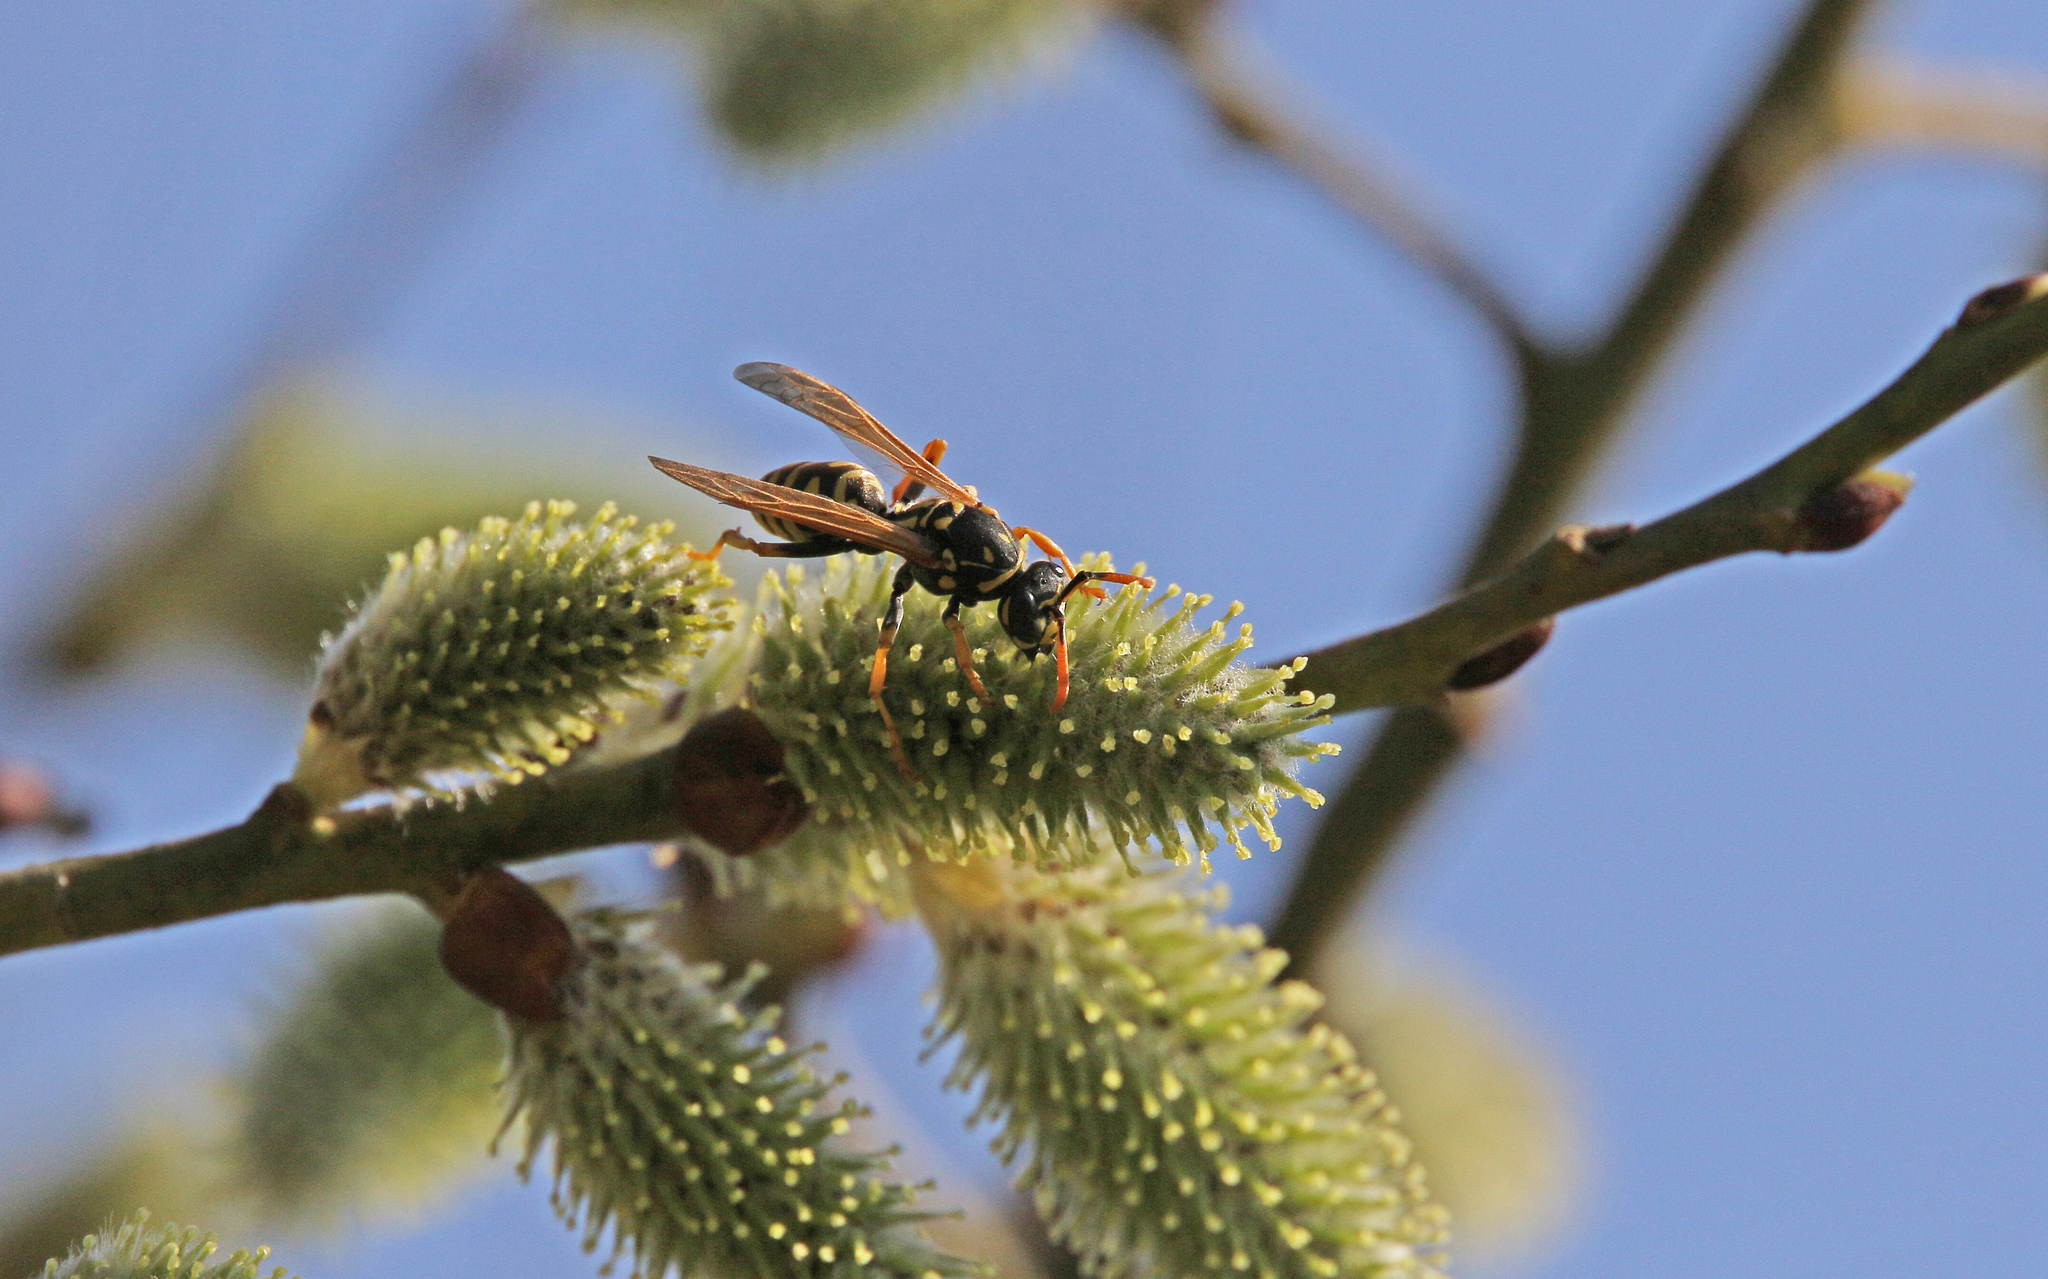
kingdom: Animalia
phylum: Arthropoda
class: Insecta
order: Hymenoptera
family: Eumenidae
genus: Polistes
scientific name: Polistes dominula
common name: Paper wasp
